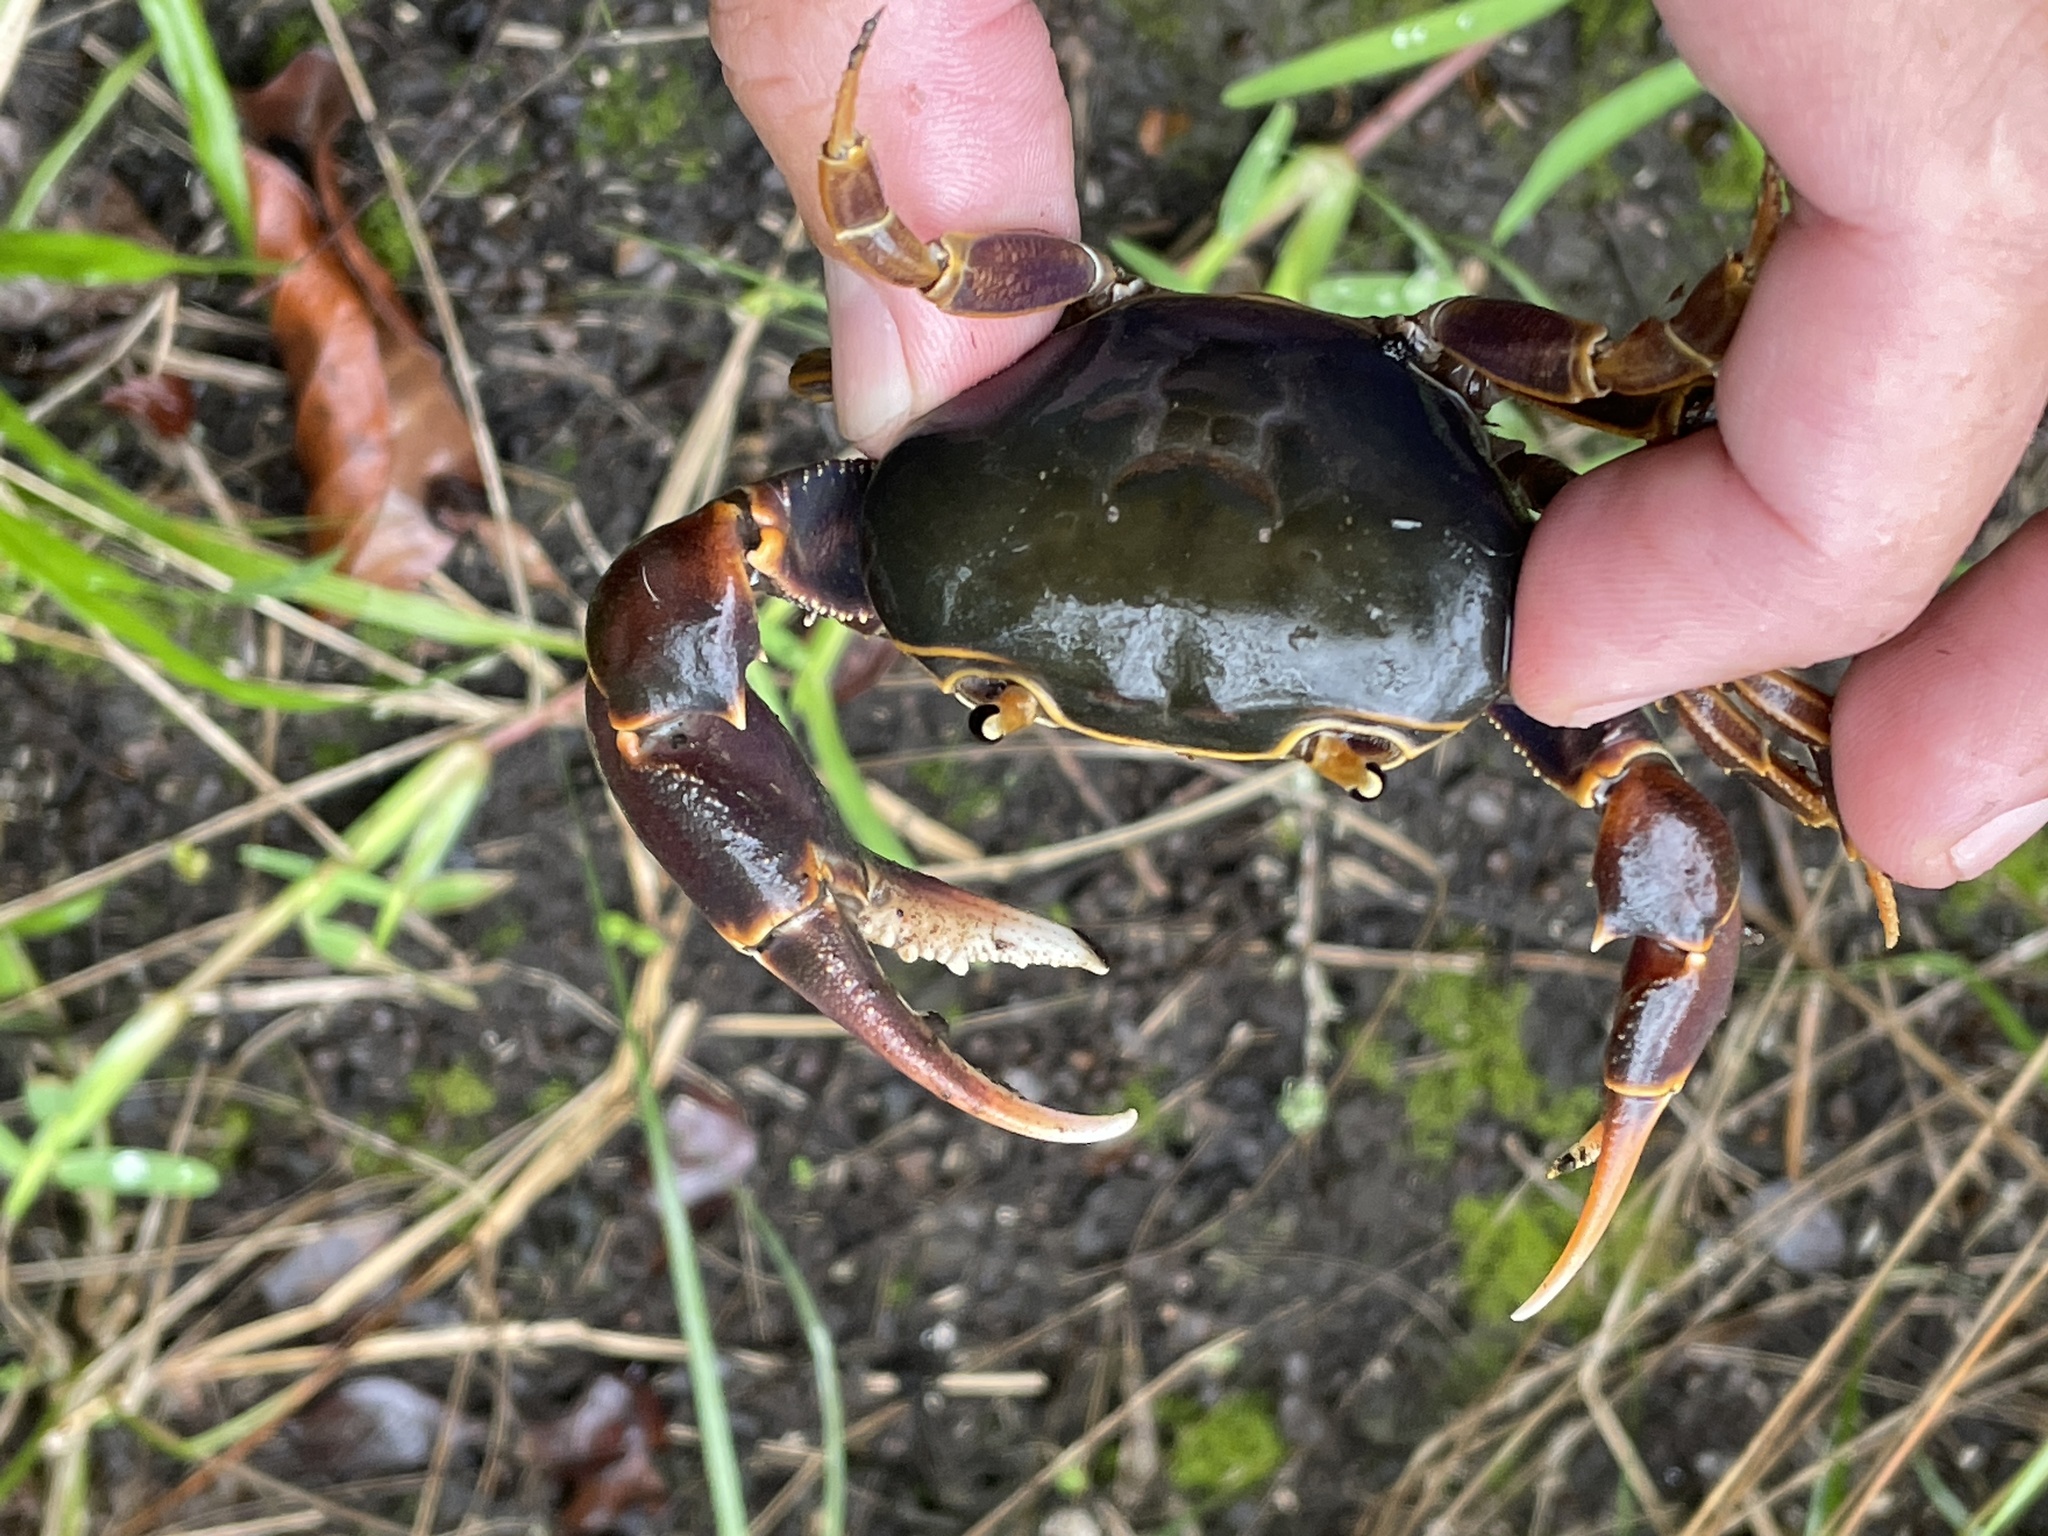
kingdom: Animalia
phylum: Arthropoda
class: Malacostraca
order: Decapoda
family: Potamonautidae
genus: Potamonautes
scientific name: Potamonautes isimangaliso
